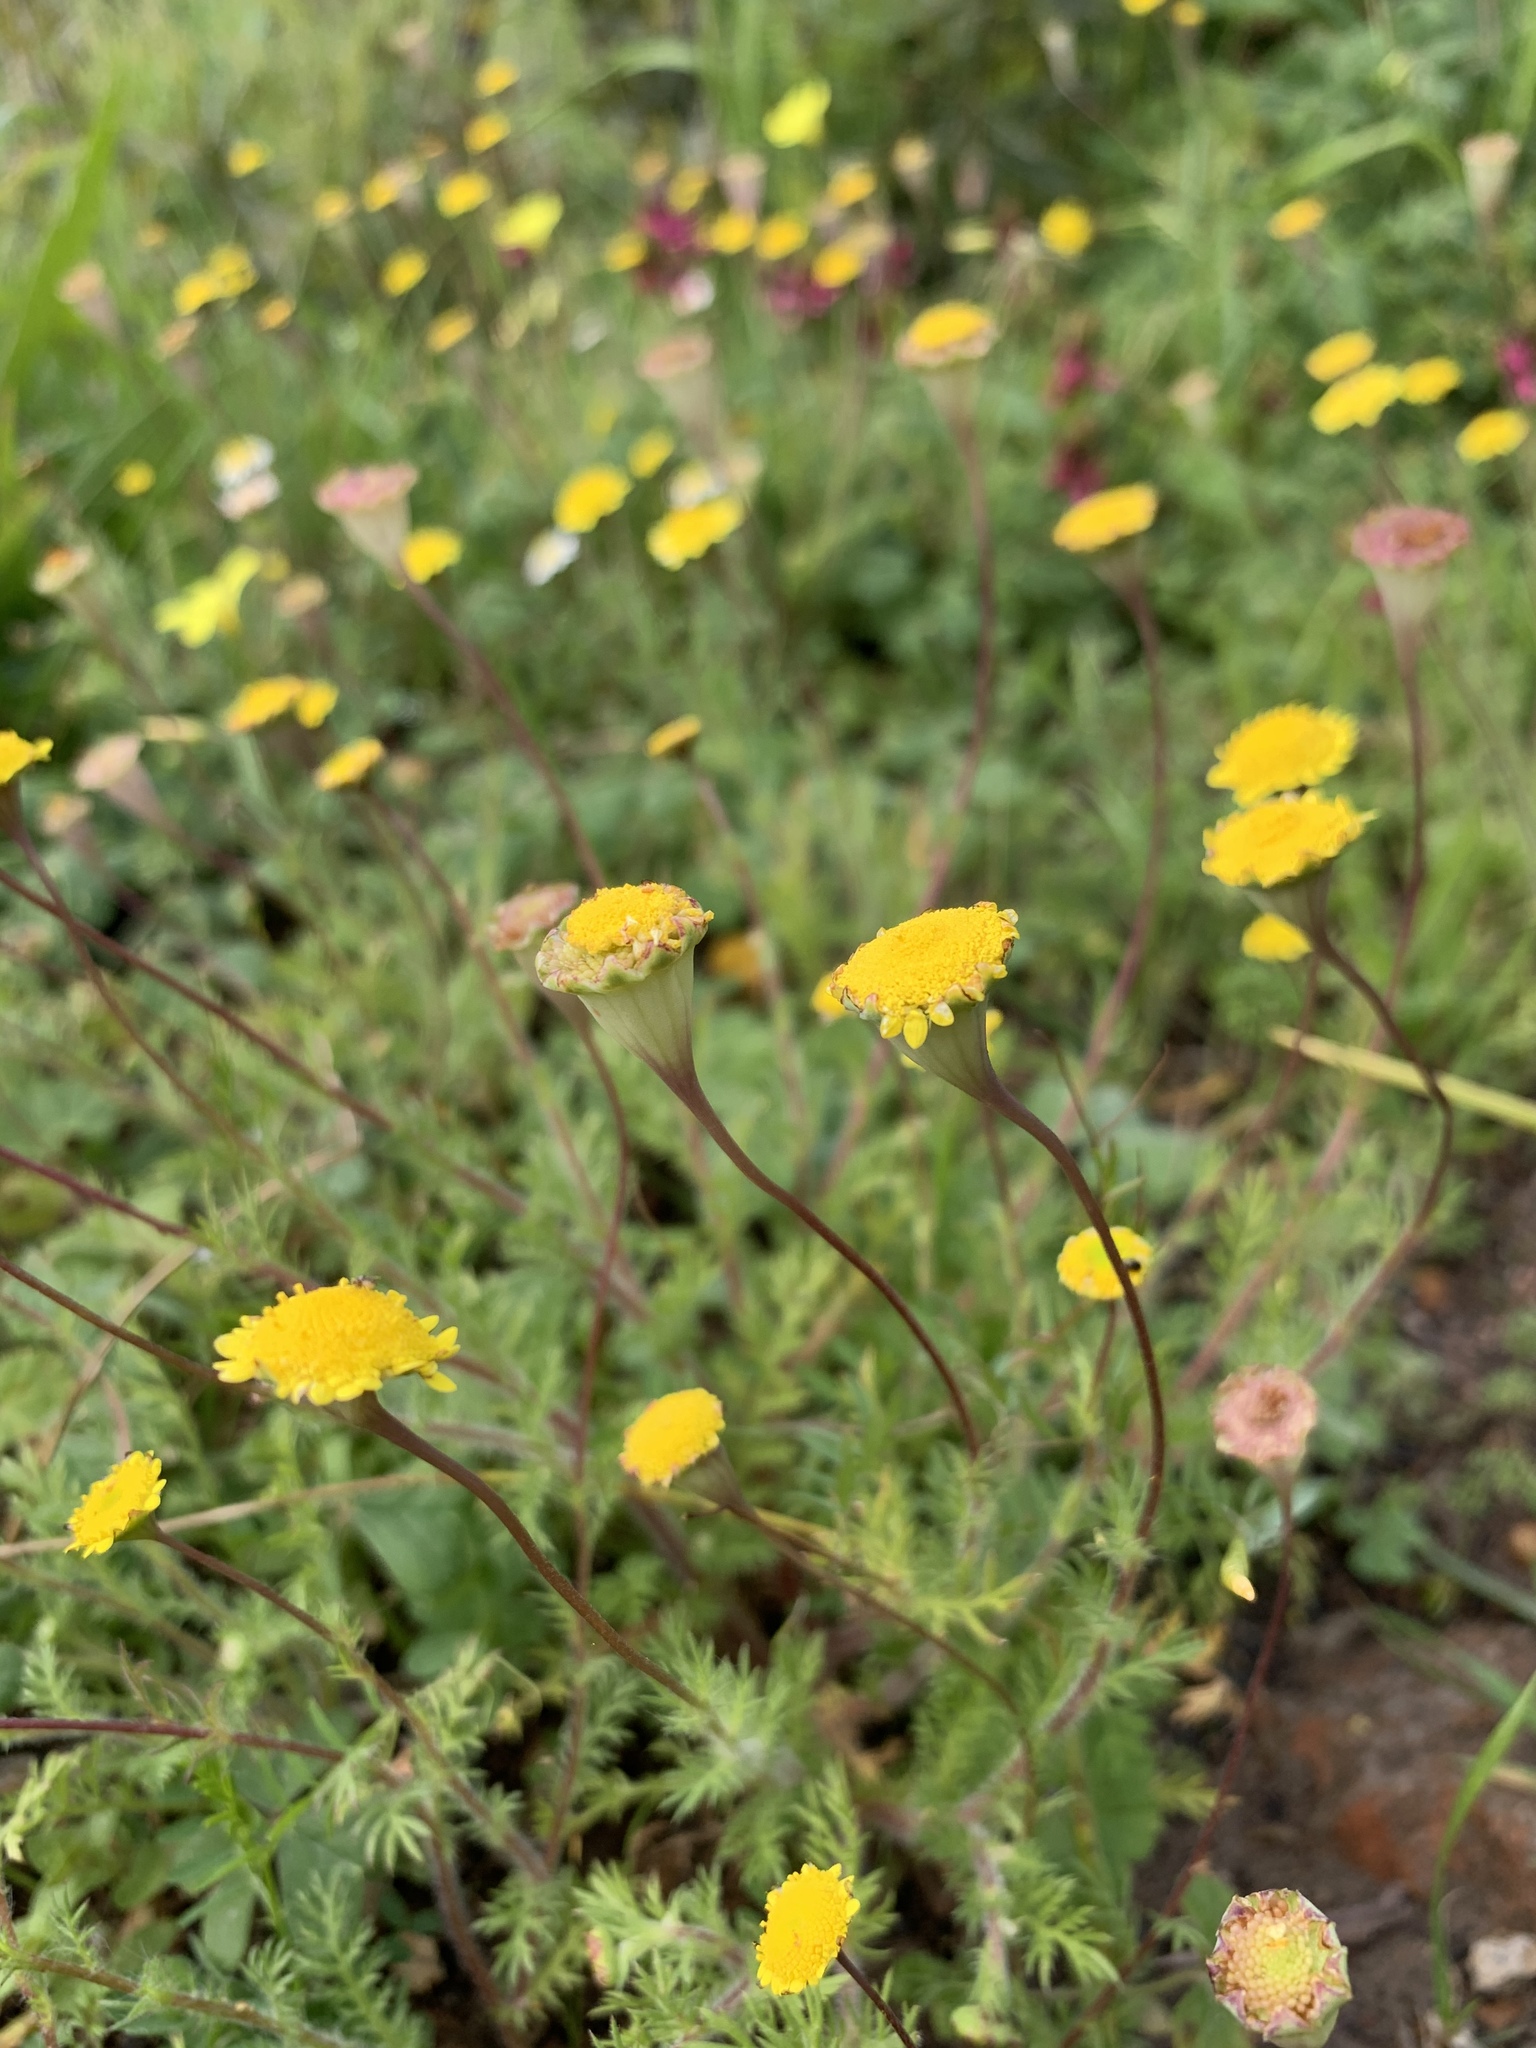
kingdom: Plantae
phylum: Tracheophyta
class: Magnoliopsida
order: Asterales
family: Asteraceae
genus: Cotula
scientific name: Cotula pruinosa
